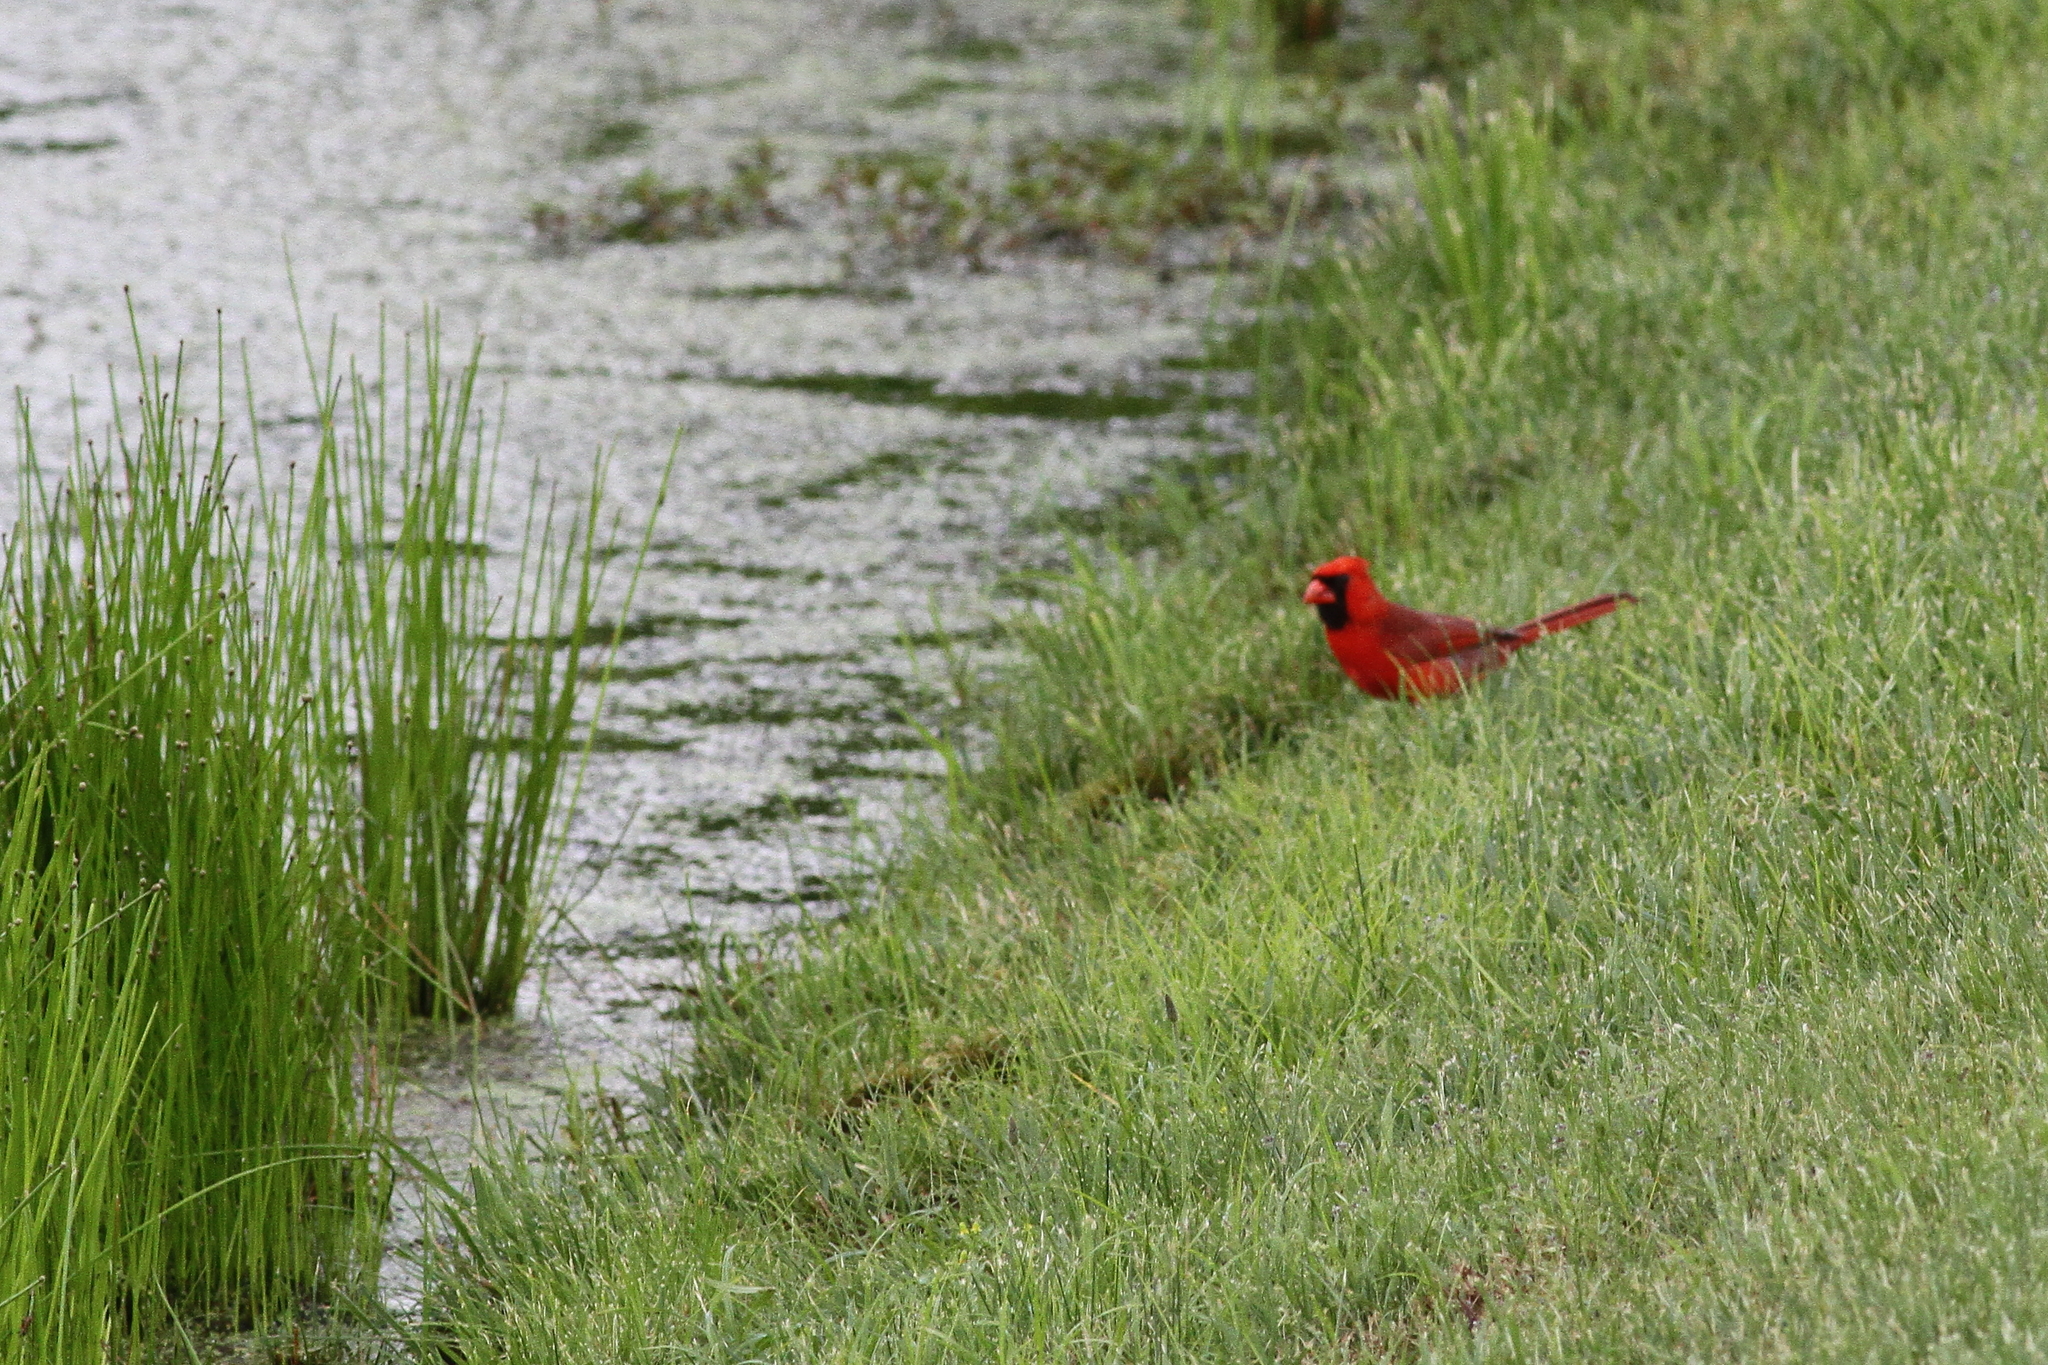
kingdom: Animalia
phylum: Chordata
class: Aves
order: Passeriformes
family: Cardinalidae
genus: Cardinalis
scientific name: Cardinalis cardinalis
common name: Northern cardinal
